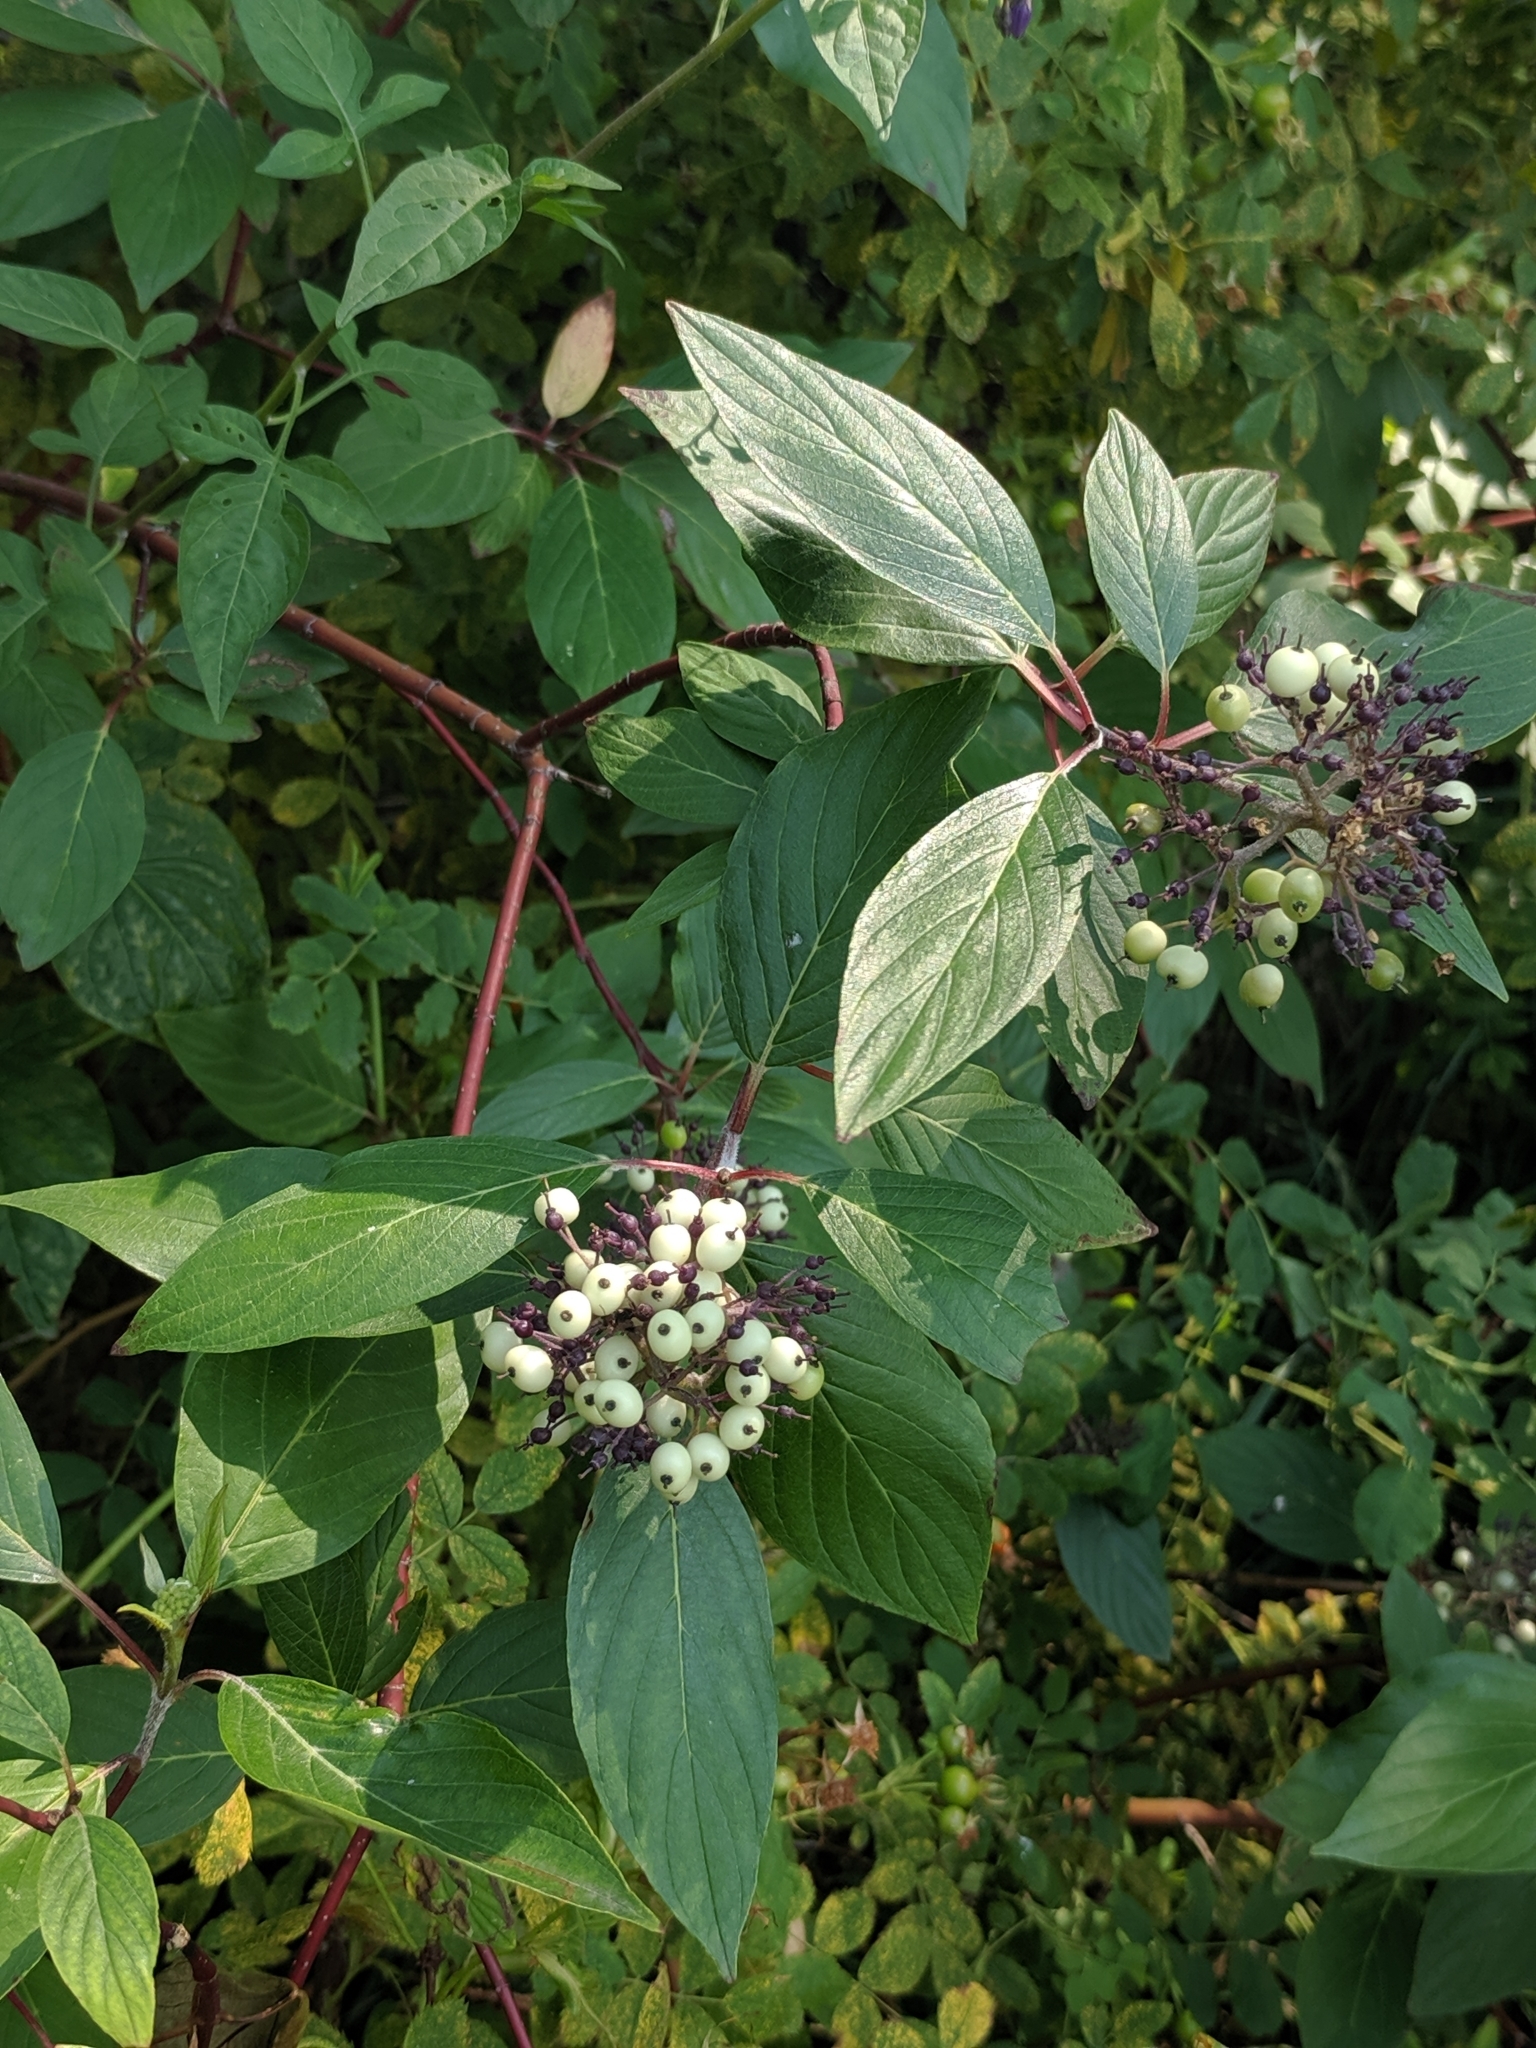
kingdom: Plantae
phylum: Tracheophyta
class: Magnoliopsida
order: Cornales
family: Cornaceae
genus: Cornus
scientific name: Cornus sericea
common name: Red-osier dogwood
